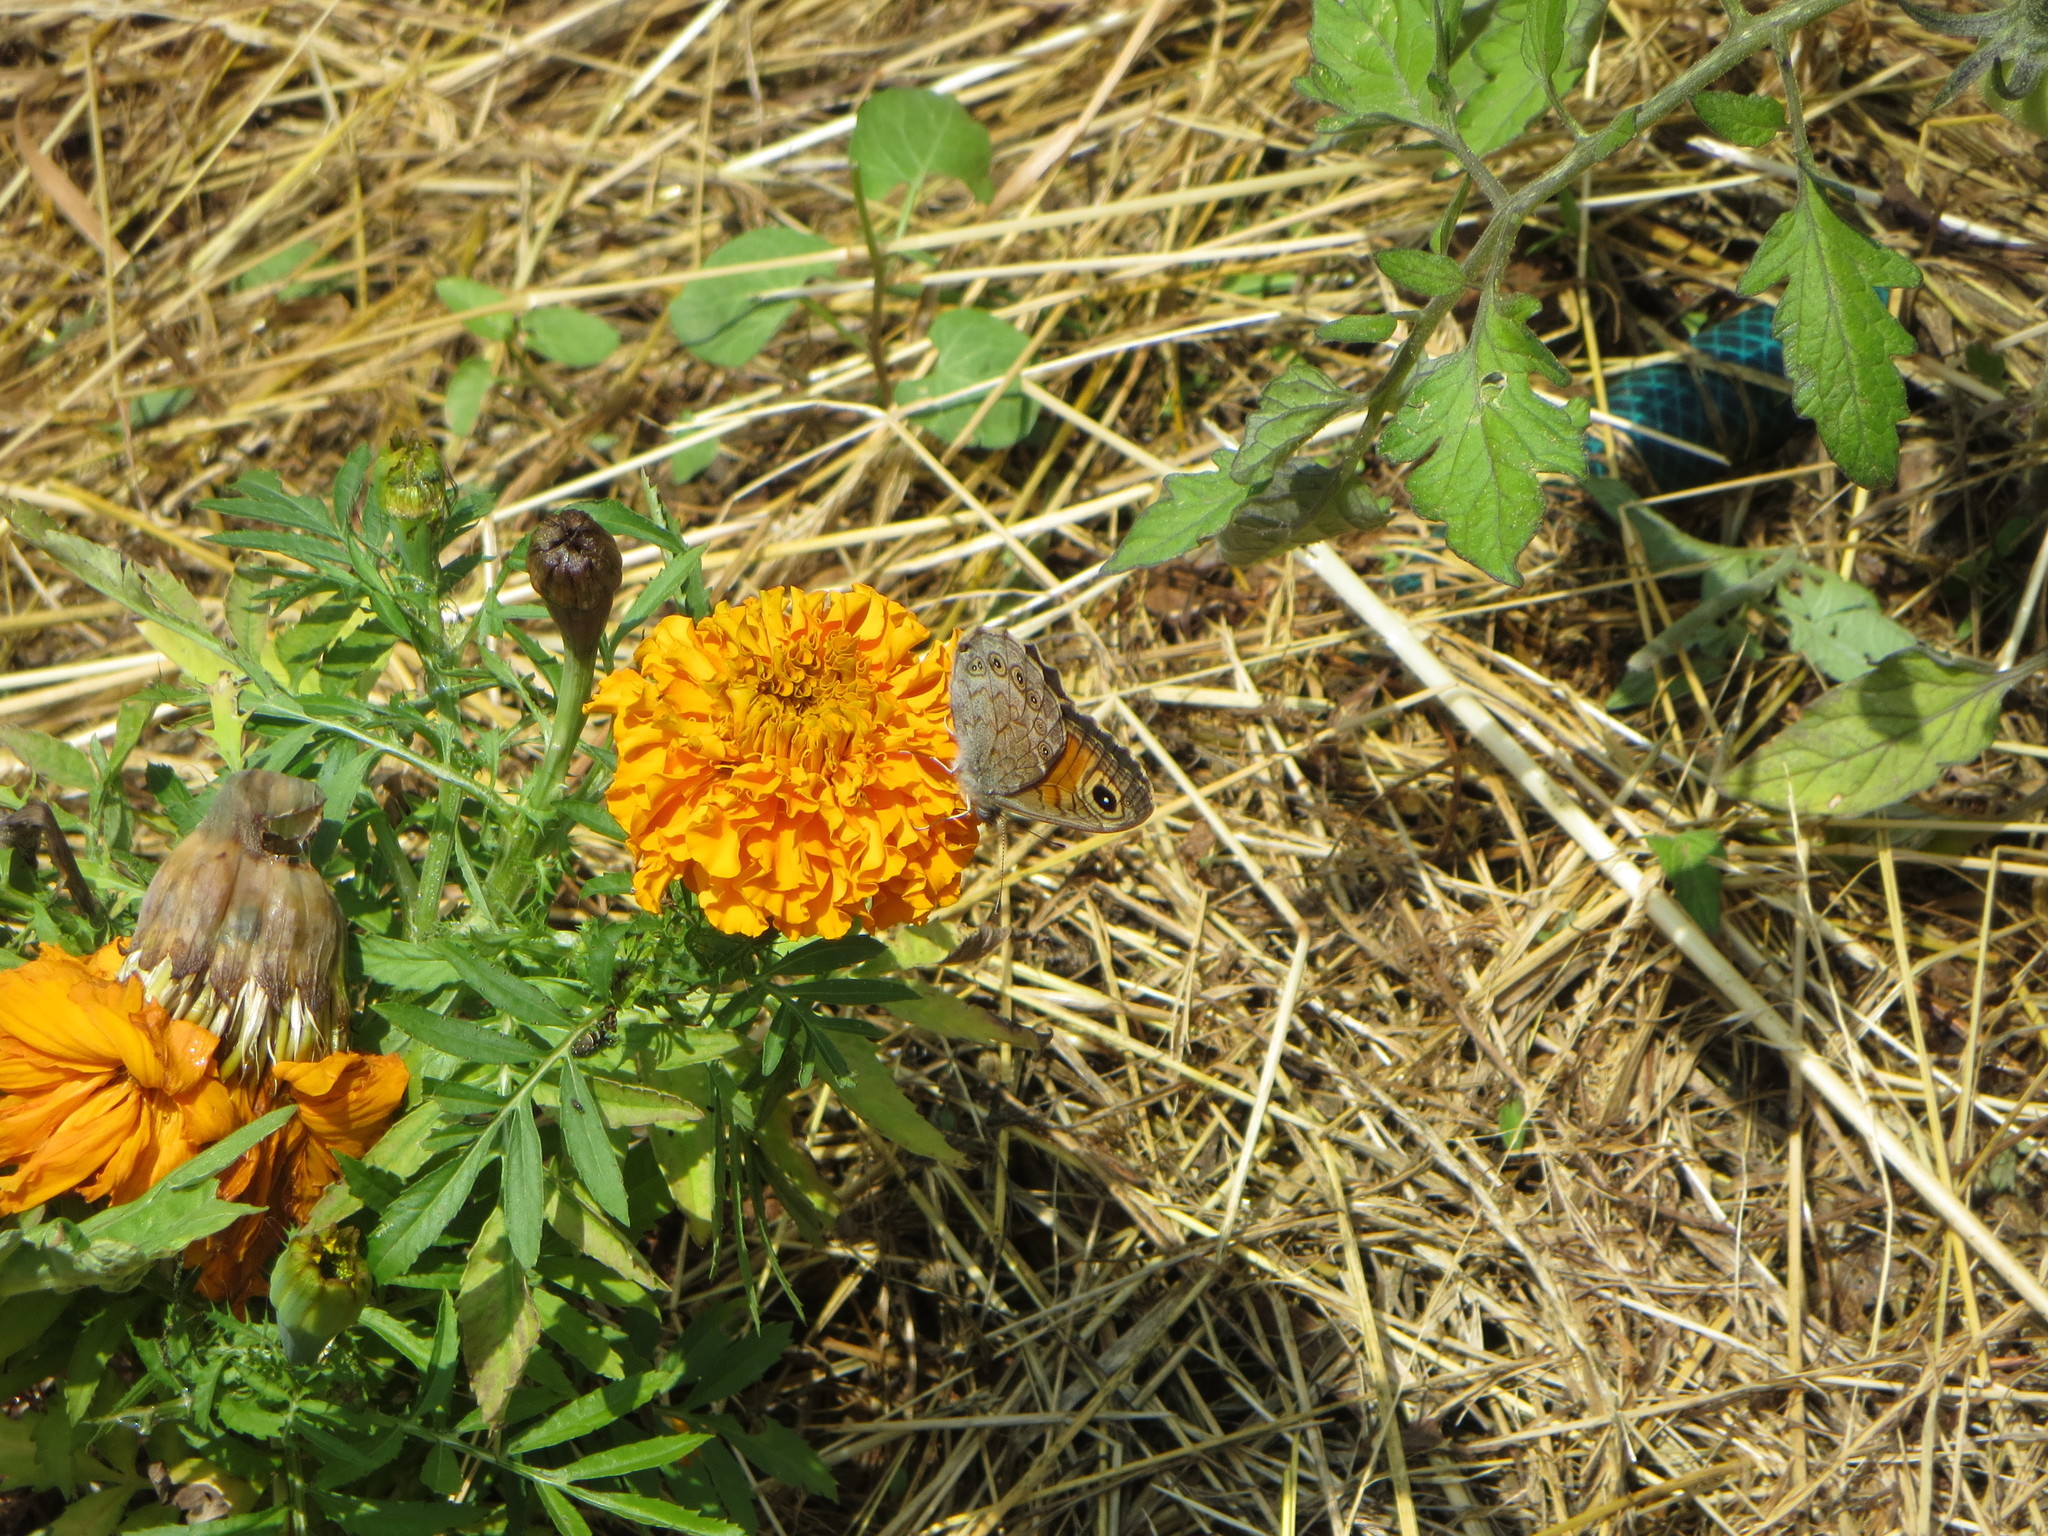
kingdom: Animalia
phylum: Arthropoda
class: Insecta
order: Lepidoptera
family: Nymphalidae
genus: Pararge
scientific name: Pararge Lasiommata maera
